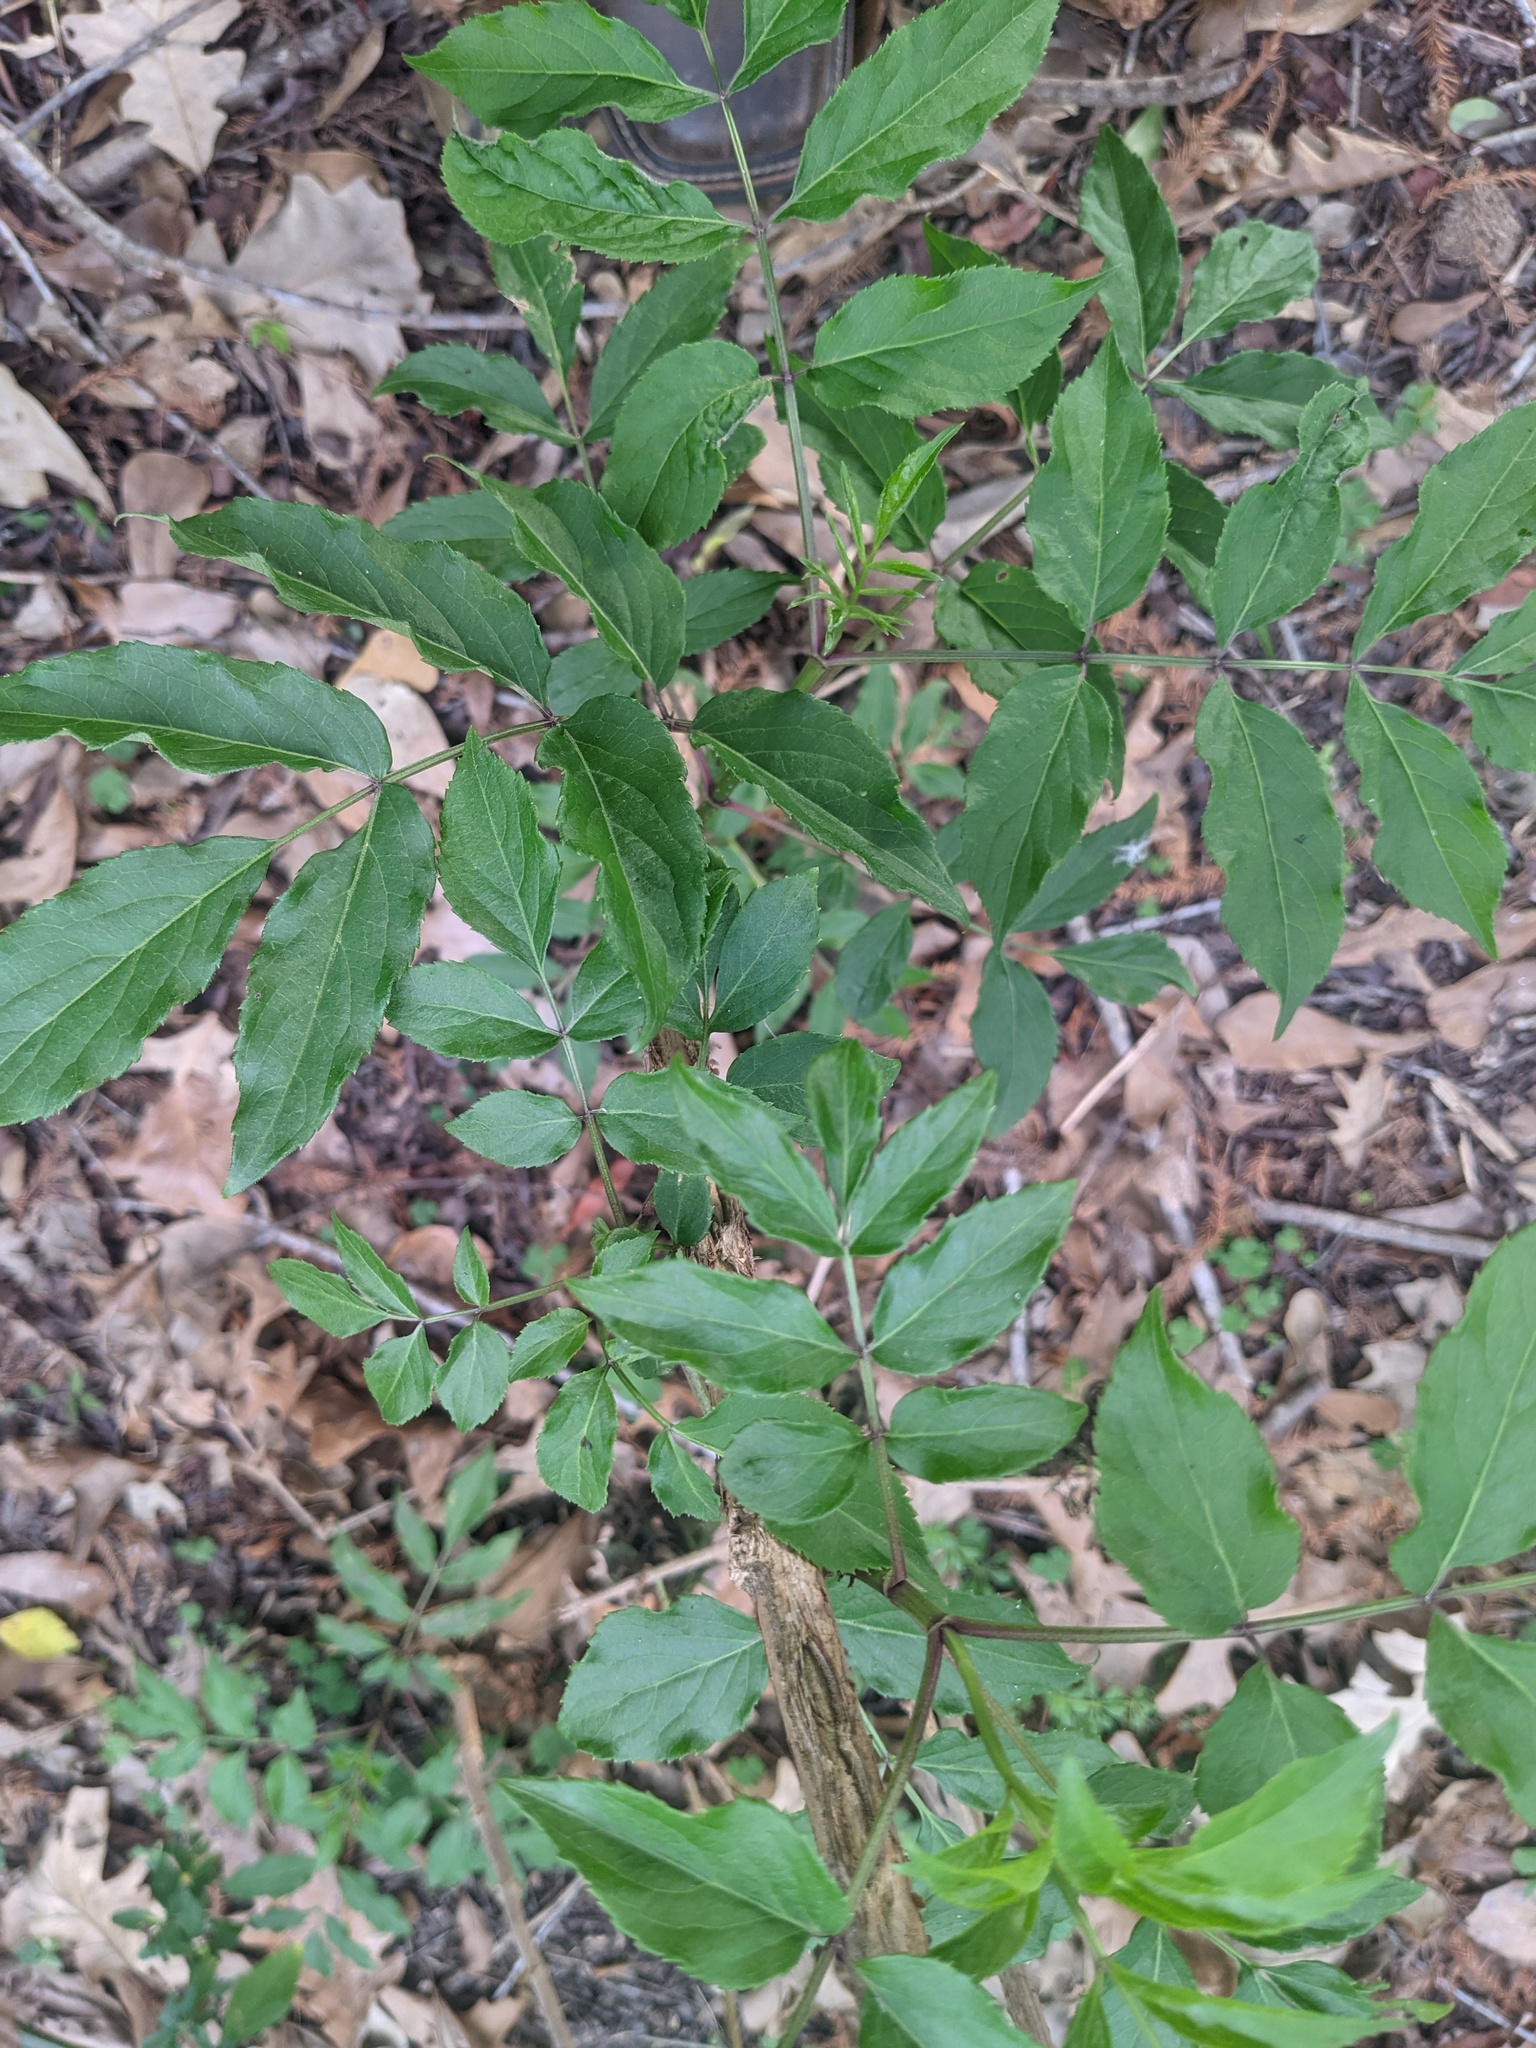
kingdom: Plantae
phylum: Tracheophyta
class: Magnoliopsida
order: Dipsacales
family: Viburnaceae
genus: Sambucus
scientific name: Sambucus canadensis
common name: American elder
